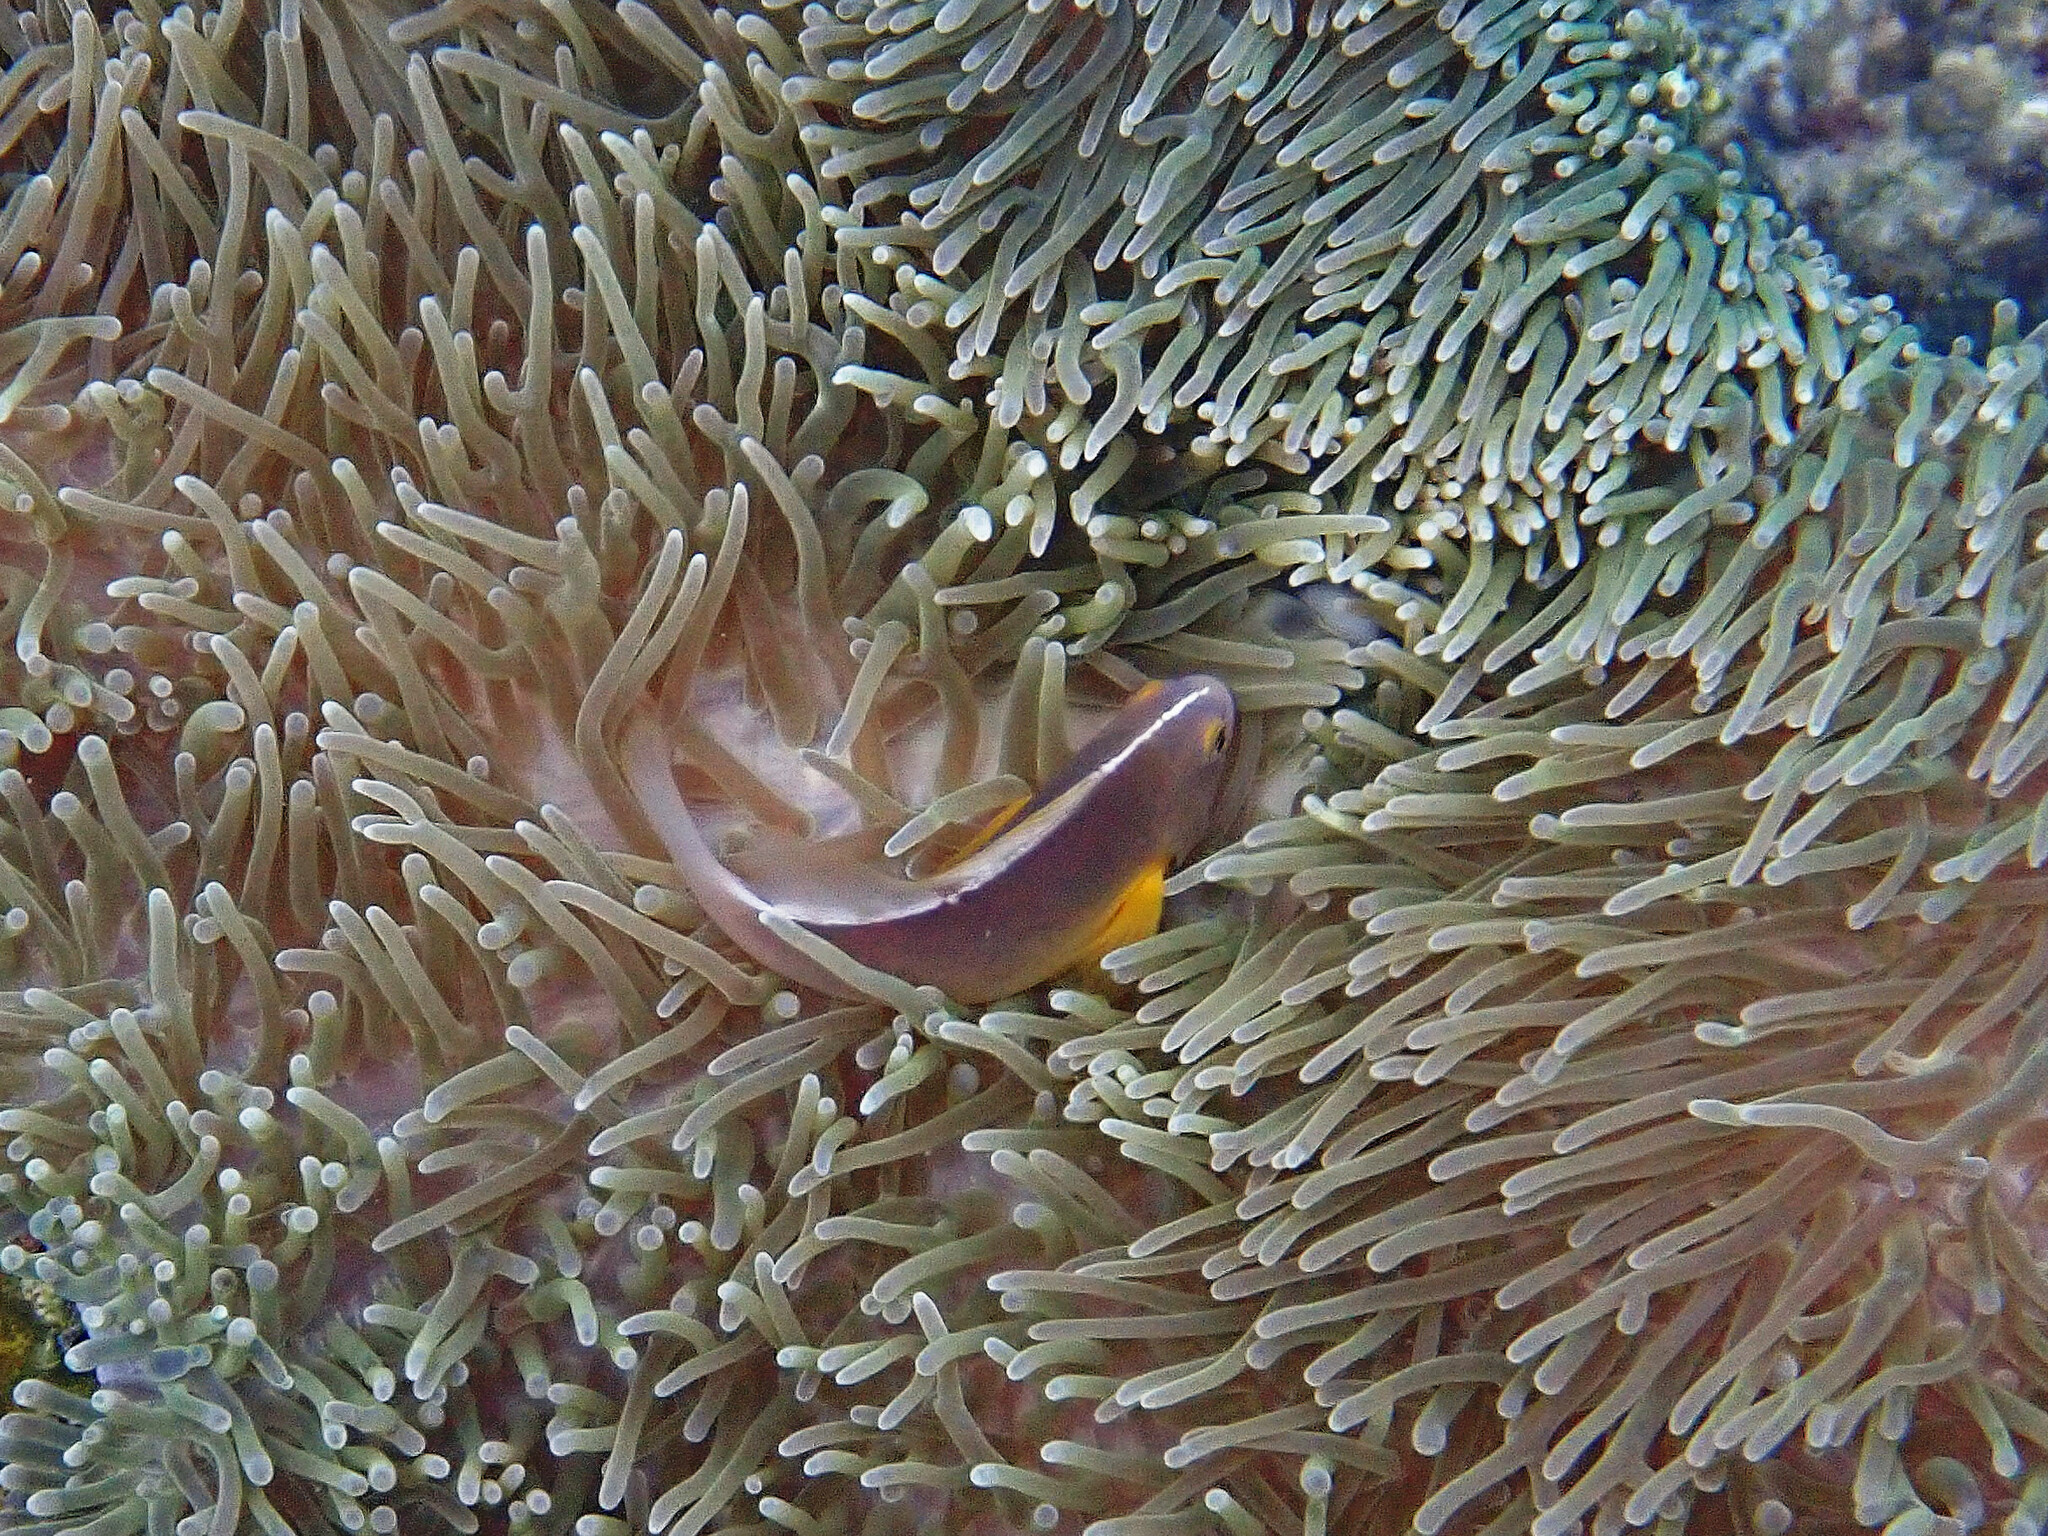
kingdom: Animalia
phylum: Chordata
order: Perciformes
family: Pomacentridae
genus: Amphiprion
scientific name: Amphiprion akallopisos
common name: Skunk clownfish
